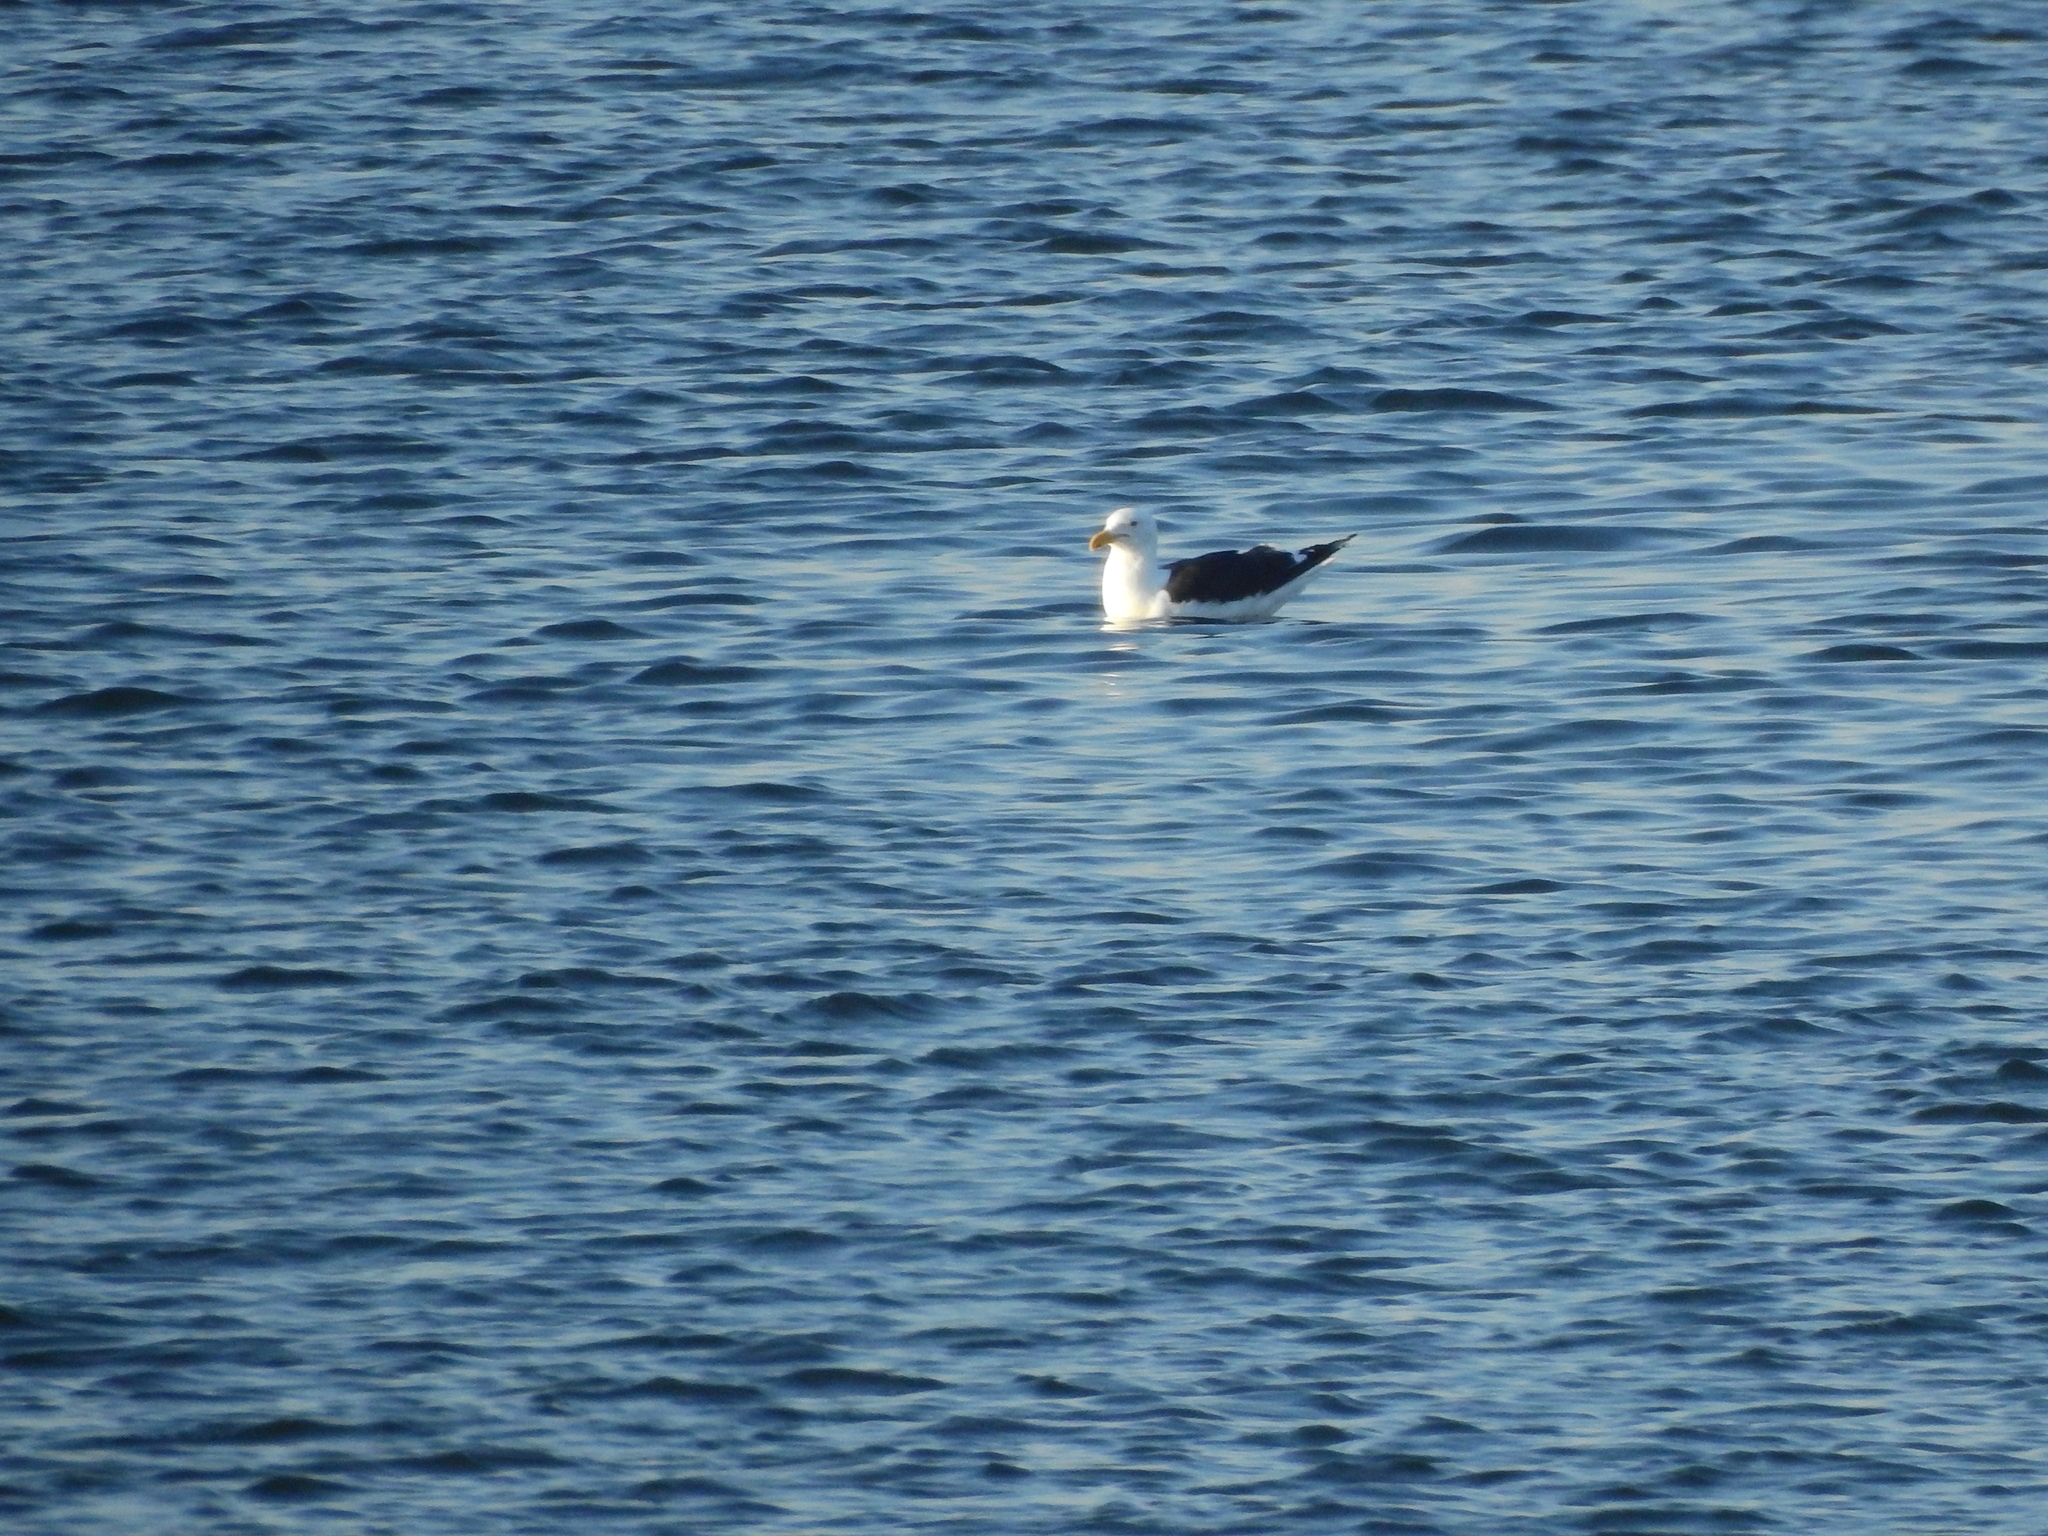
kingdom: Animalia
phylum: Chordata
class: Aves
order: Charadriiformes
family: Laridae
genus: Larus
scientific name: Larus dominicanus
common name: Kelp gull
